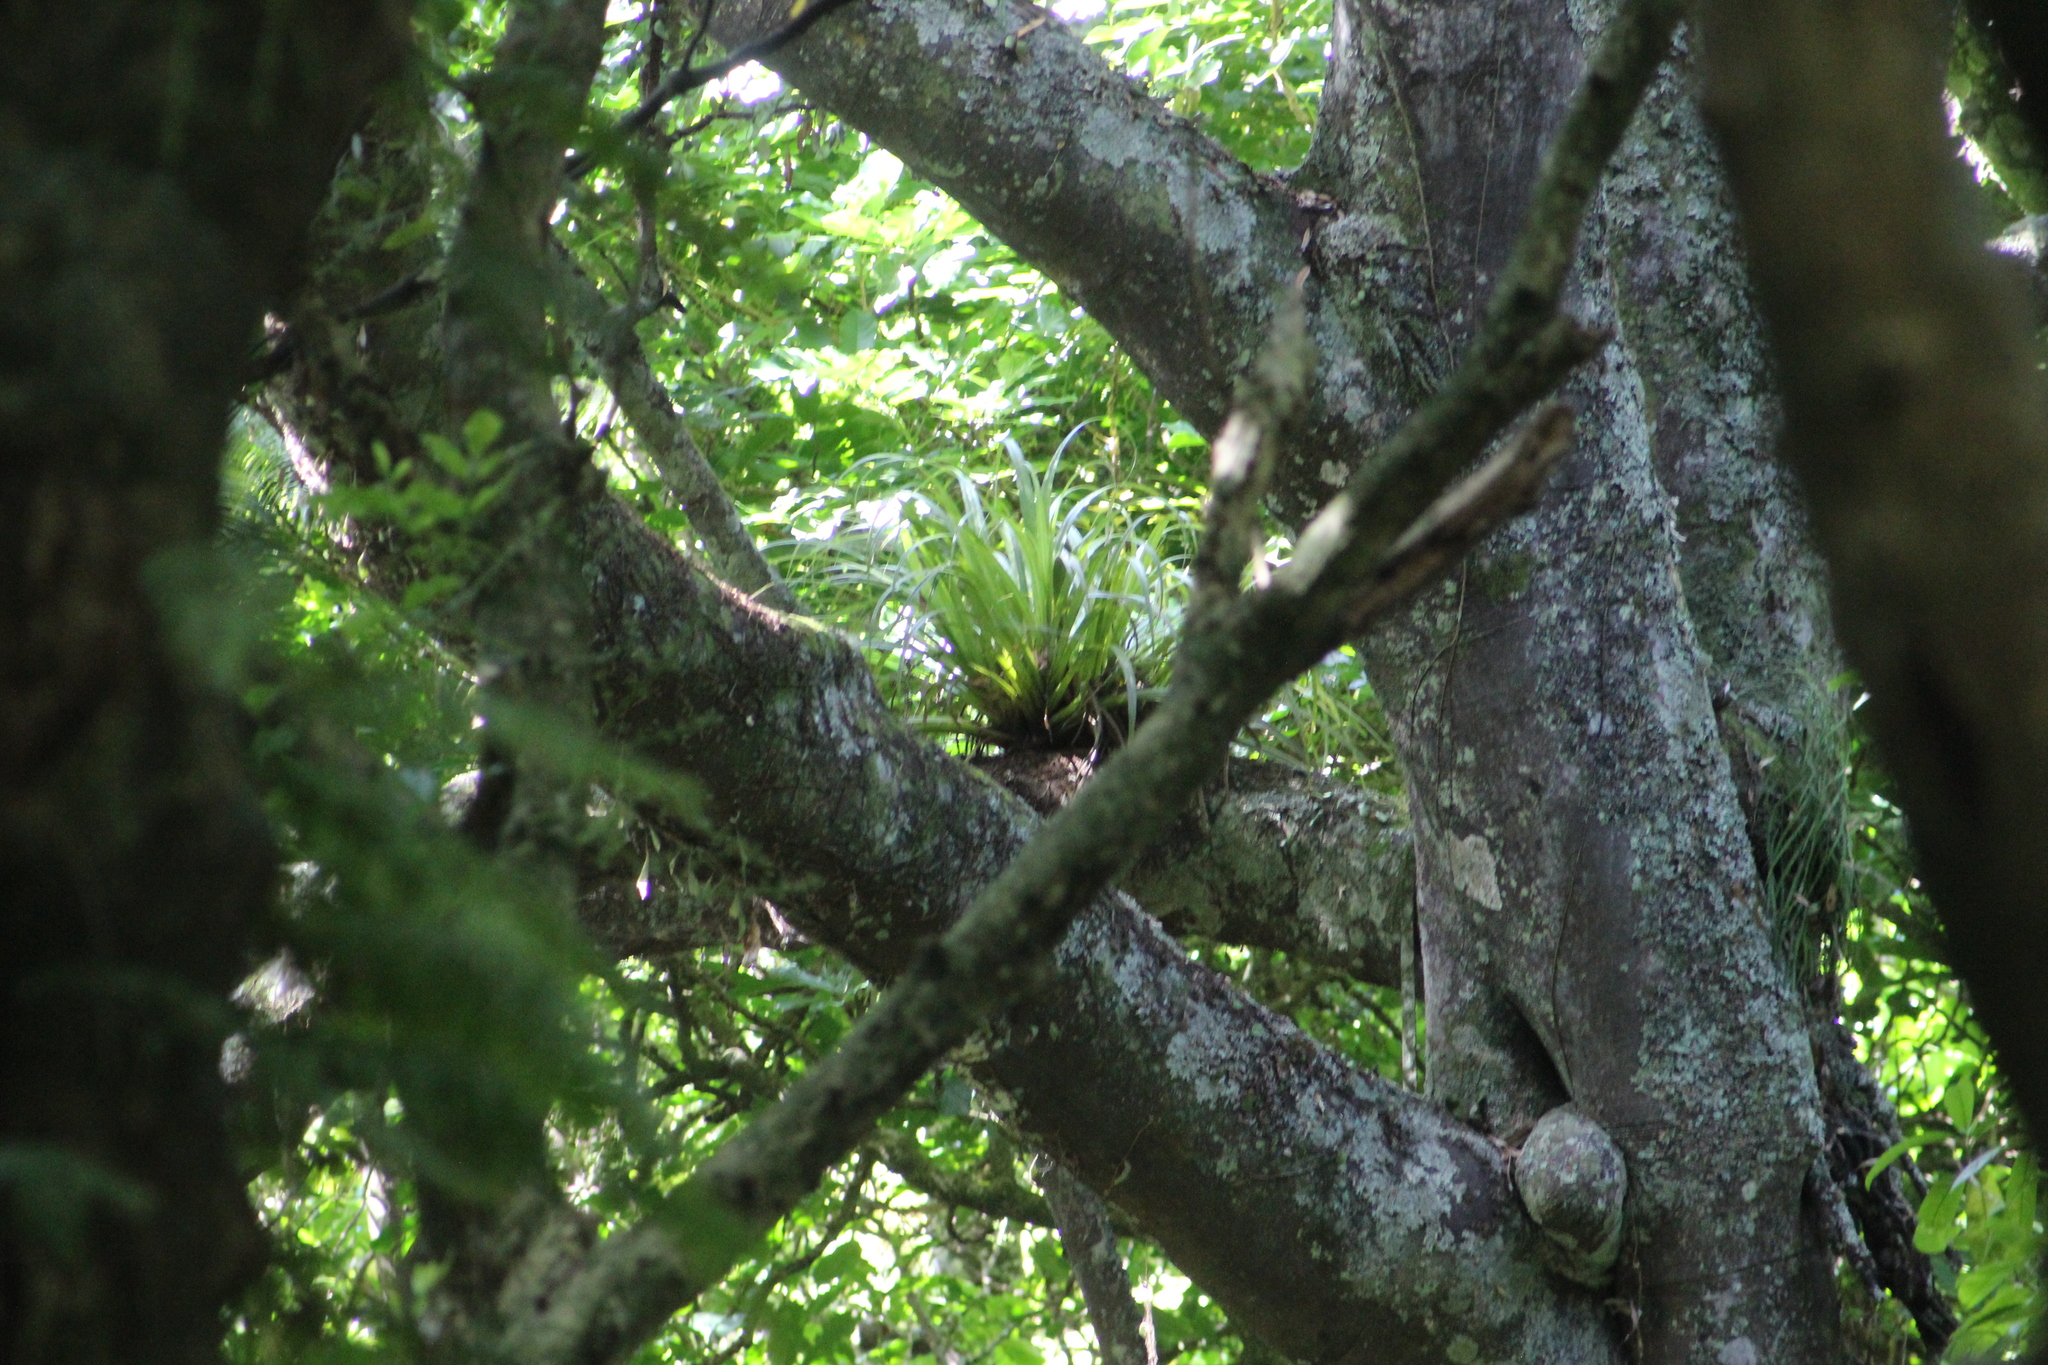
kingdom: Plantae
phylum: Tracheophyta
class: Liliopsida
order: Asparagales
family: Asteliaceae
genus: Astelia
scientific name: Astelia hastata
